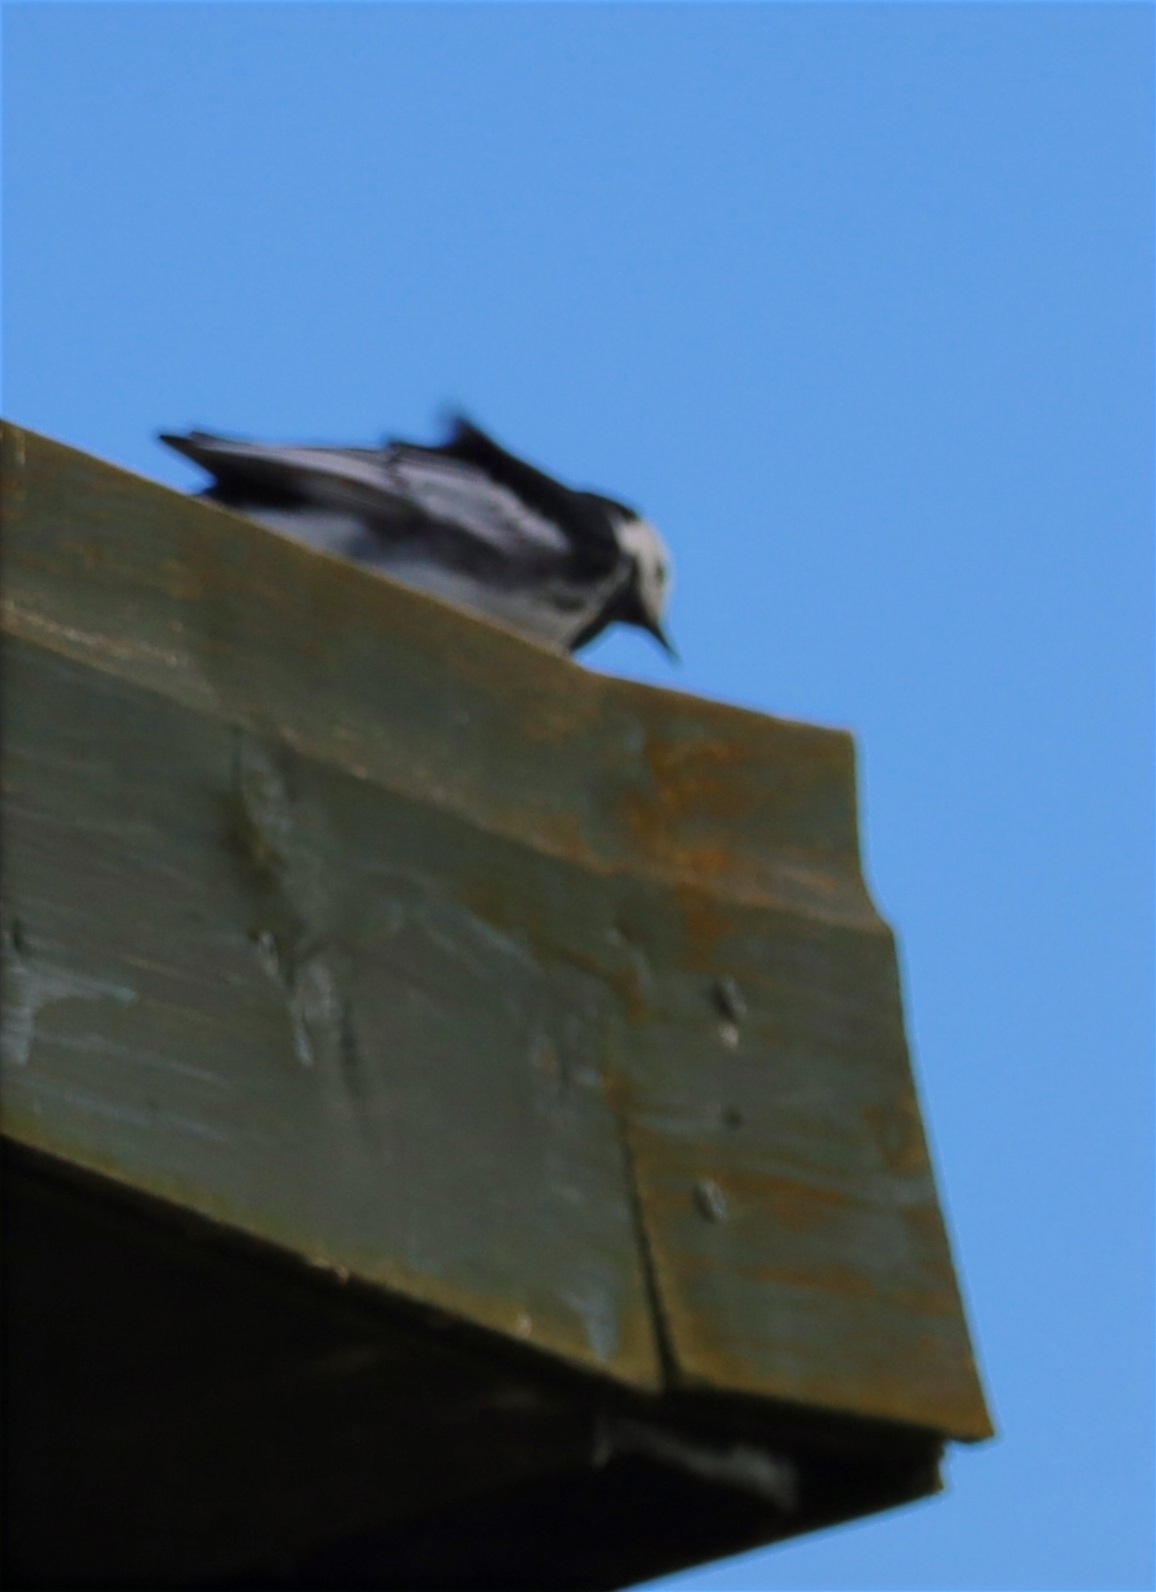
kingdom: Animalia
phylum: Chordata
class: Aves
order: Passeriformes
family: Motacillidae
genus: Motacilla
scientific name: Motacilla alba
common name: White wagtail
